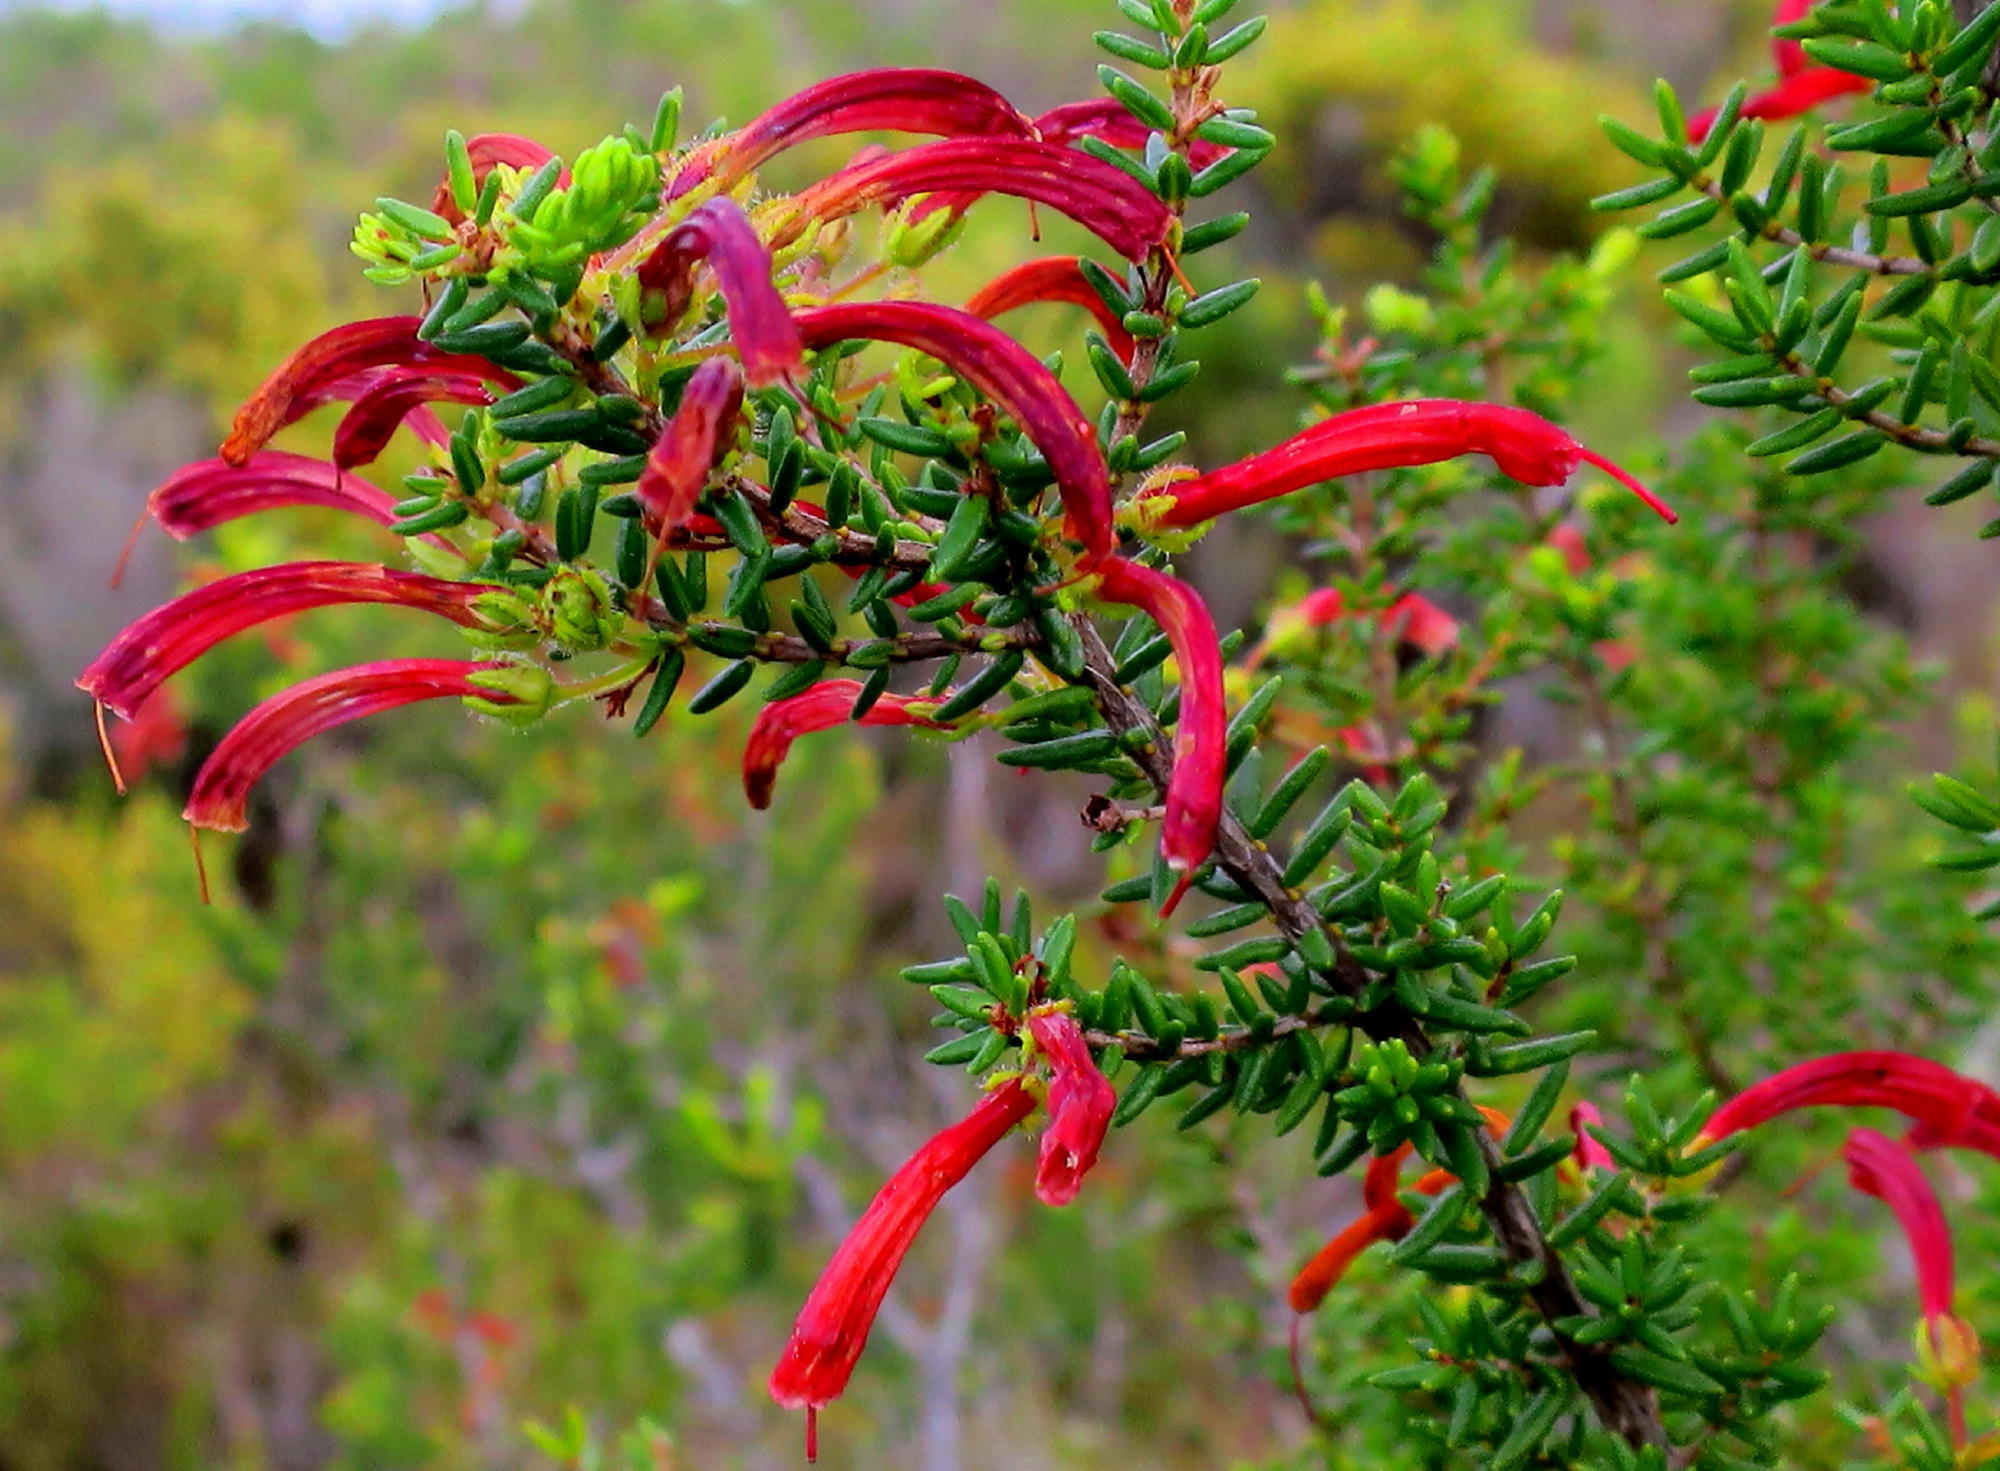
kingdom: Plantae
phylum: Tracheophyta
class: Magnoliopsida
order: Ericales
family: Ericaceae
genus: Erica
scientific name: Erica glandulosa
